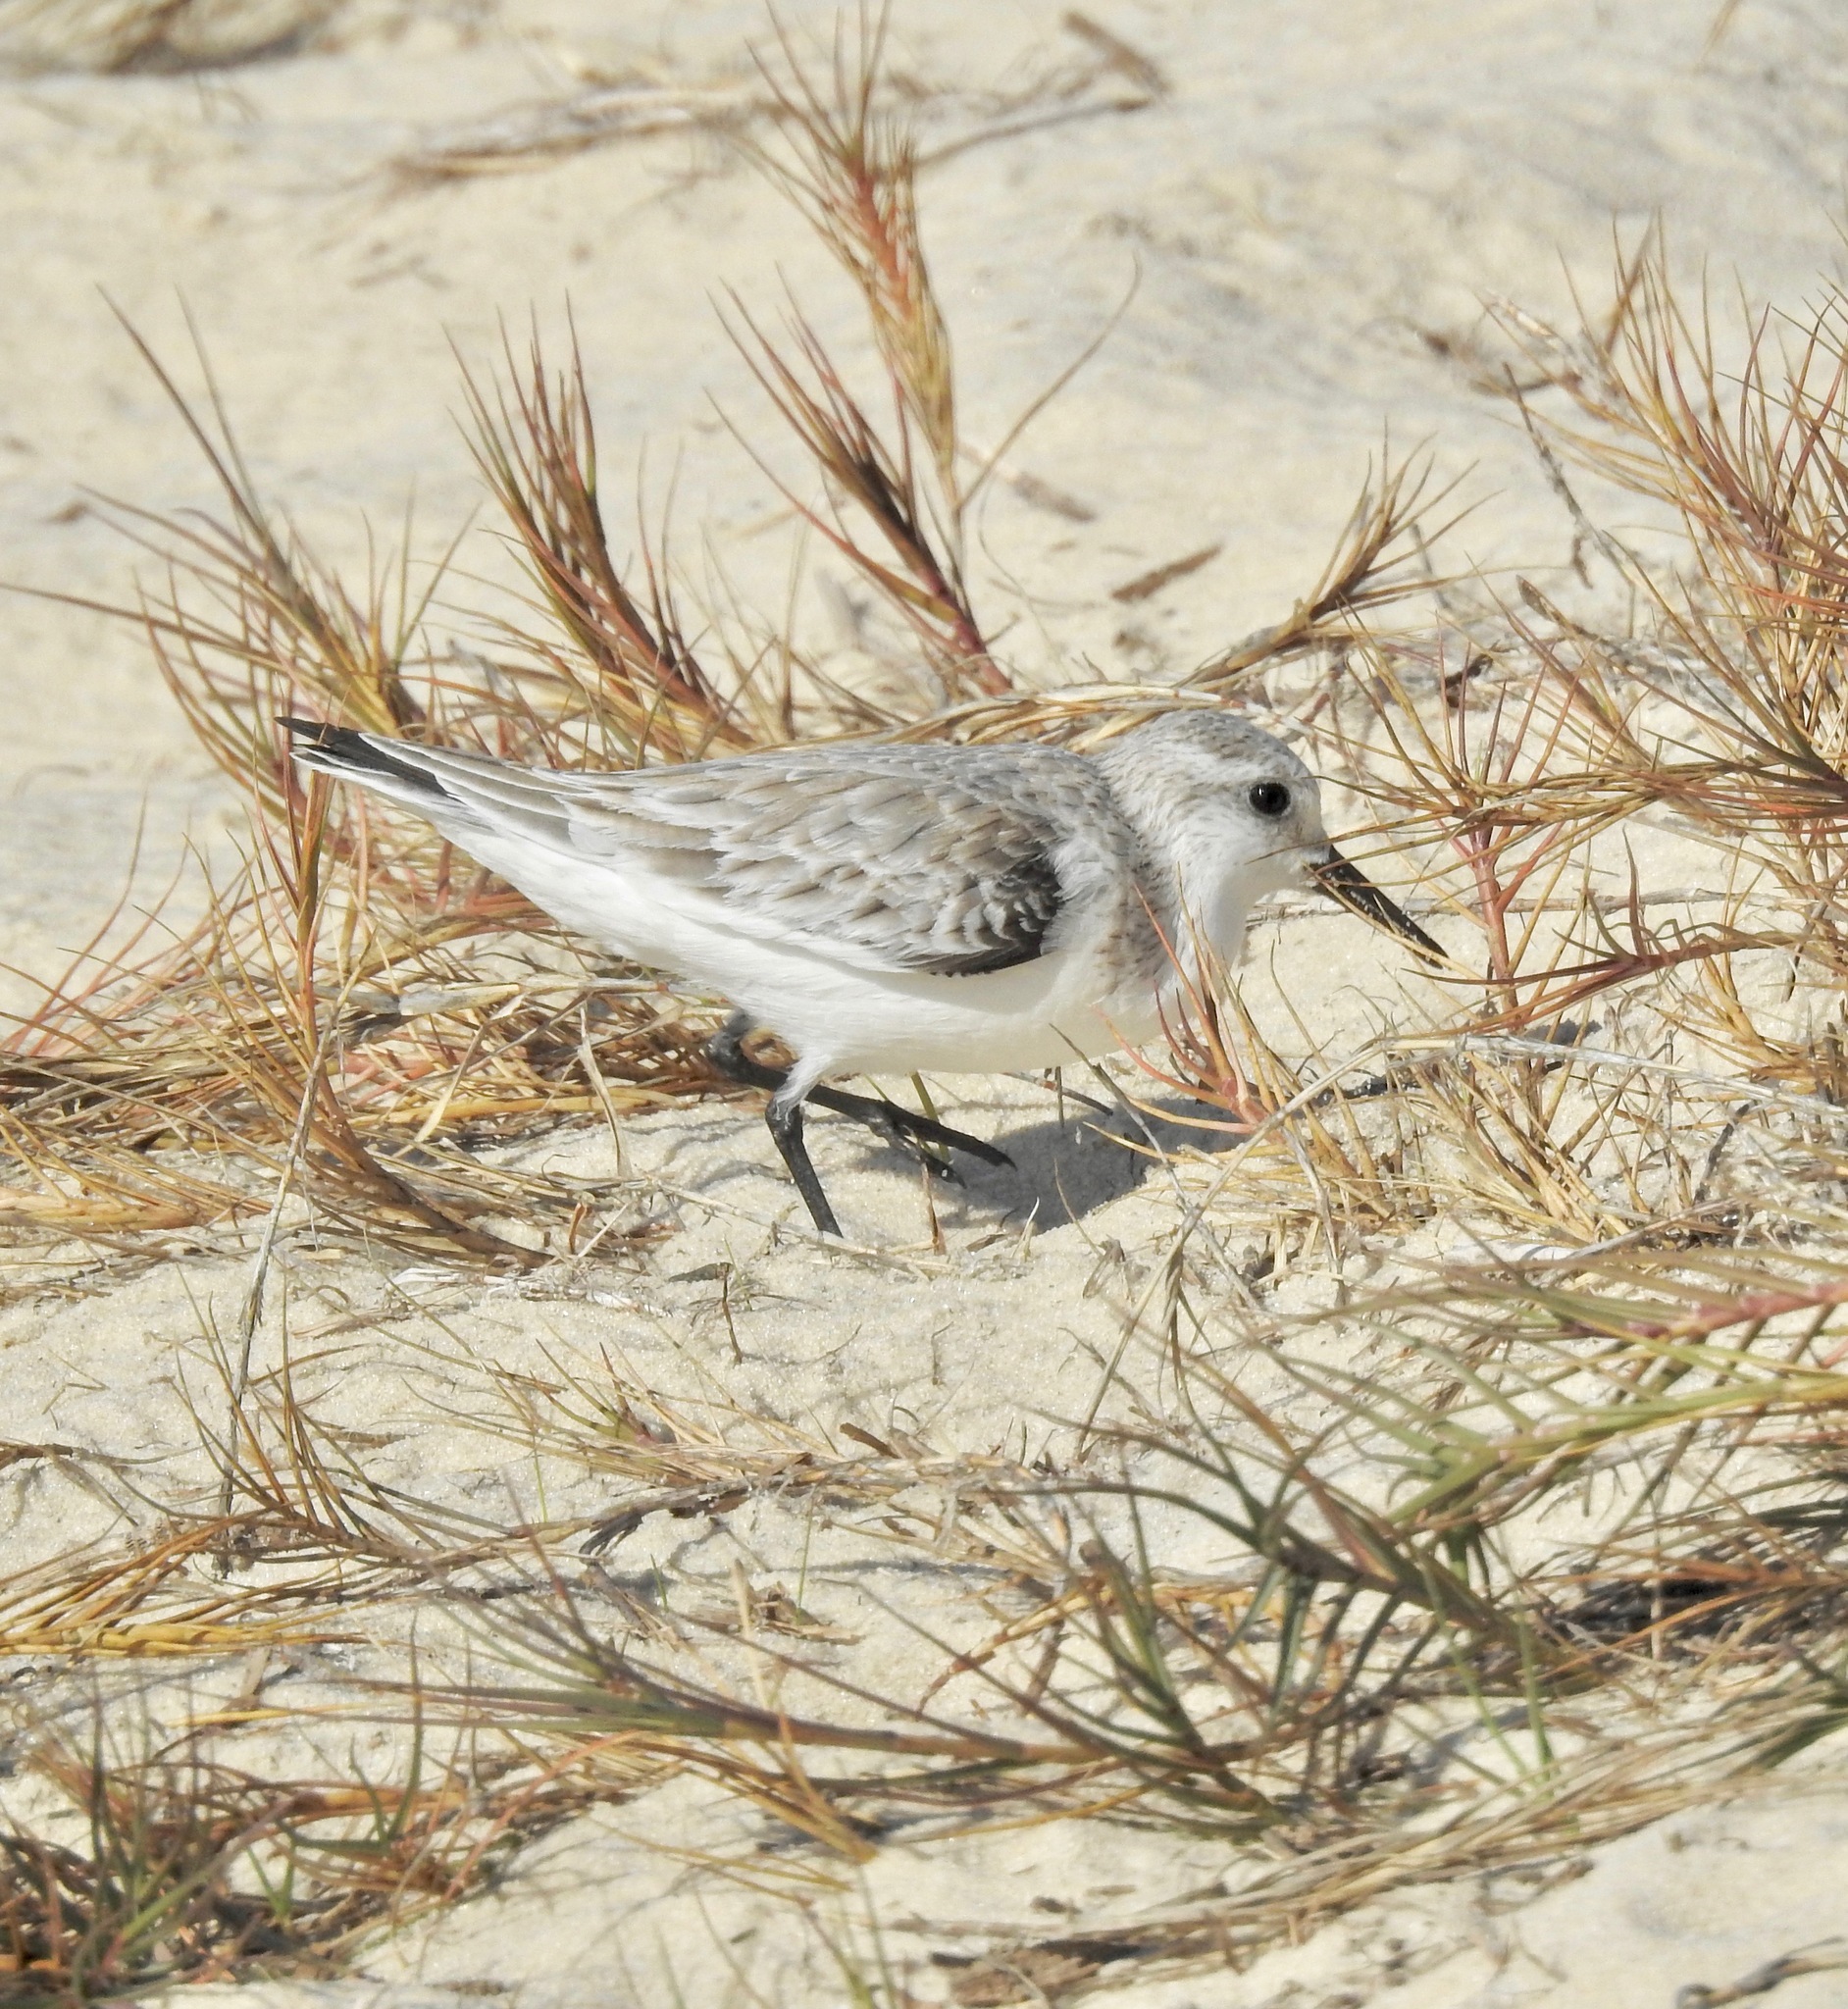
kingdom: Animalia
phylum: Chordata
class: Aves
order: Charadriiformes
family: Scolopacidae
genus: Calidris
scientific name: Calidris alba
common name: Sanderling
